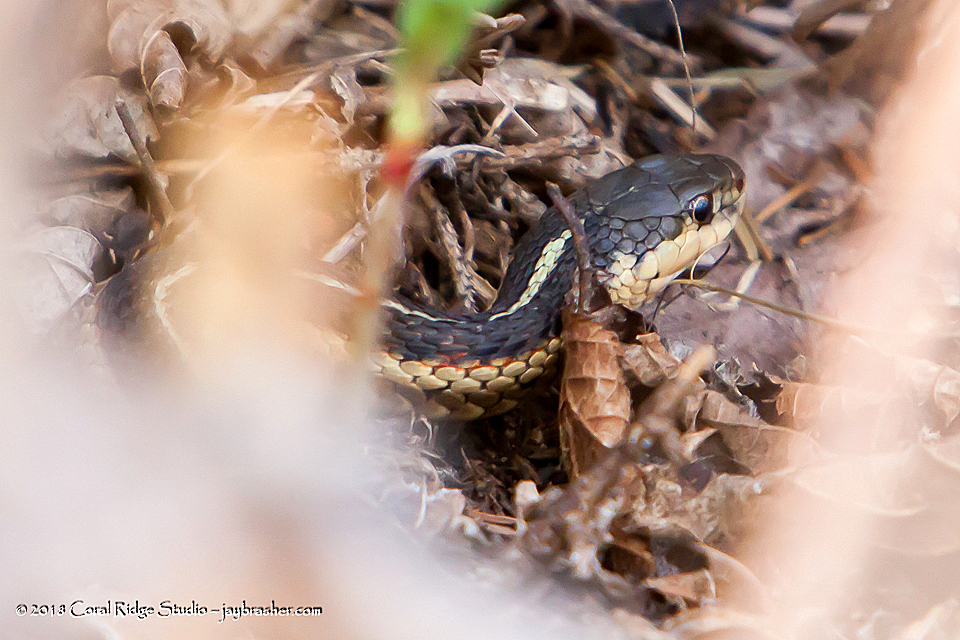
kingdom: Animalia
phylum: Chordata
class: Squamata
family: Colubridae
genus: Thamnophis
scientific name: Thamnophis sirtalis
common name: Common garter snake
